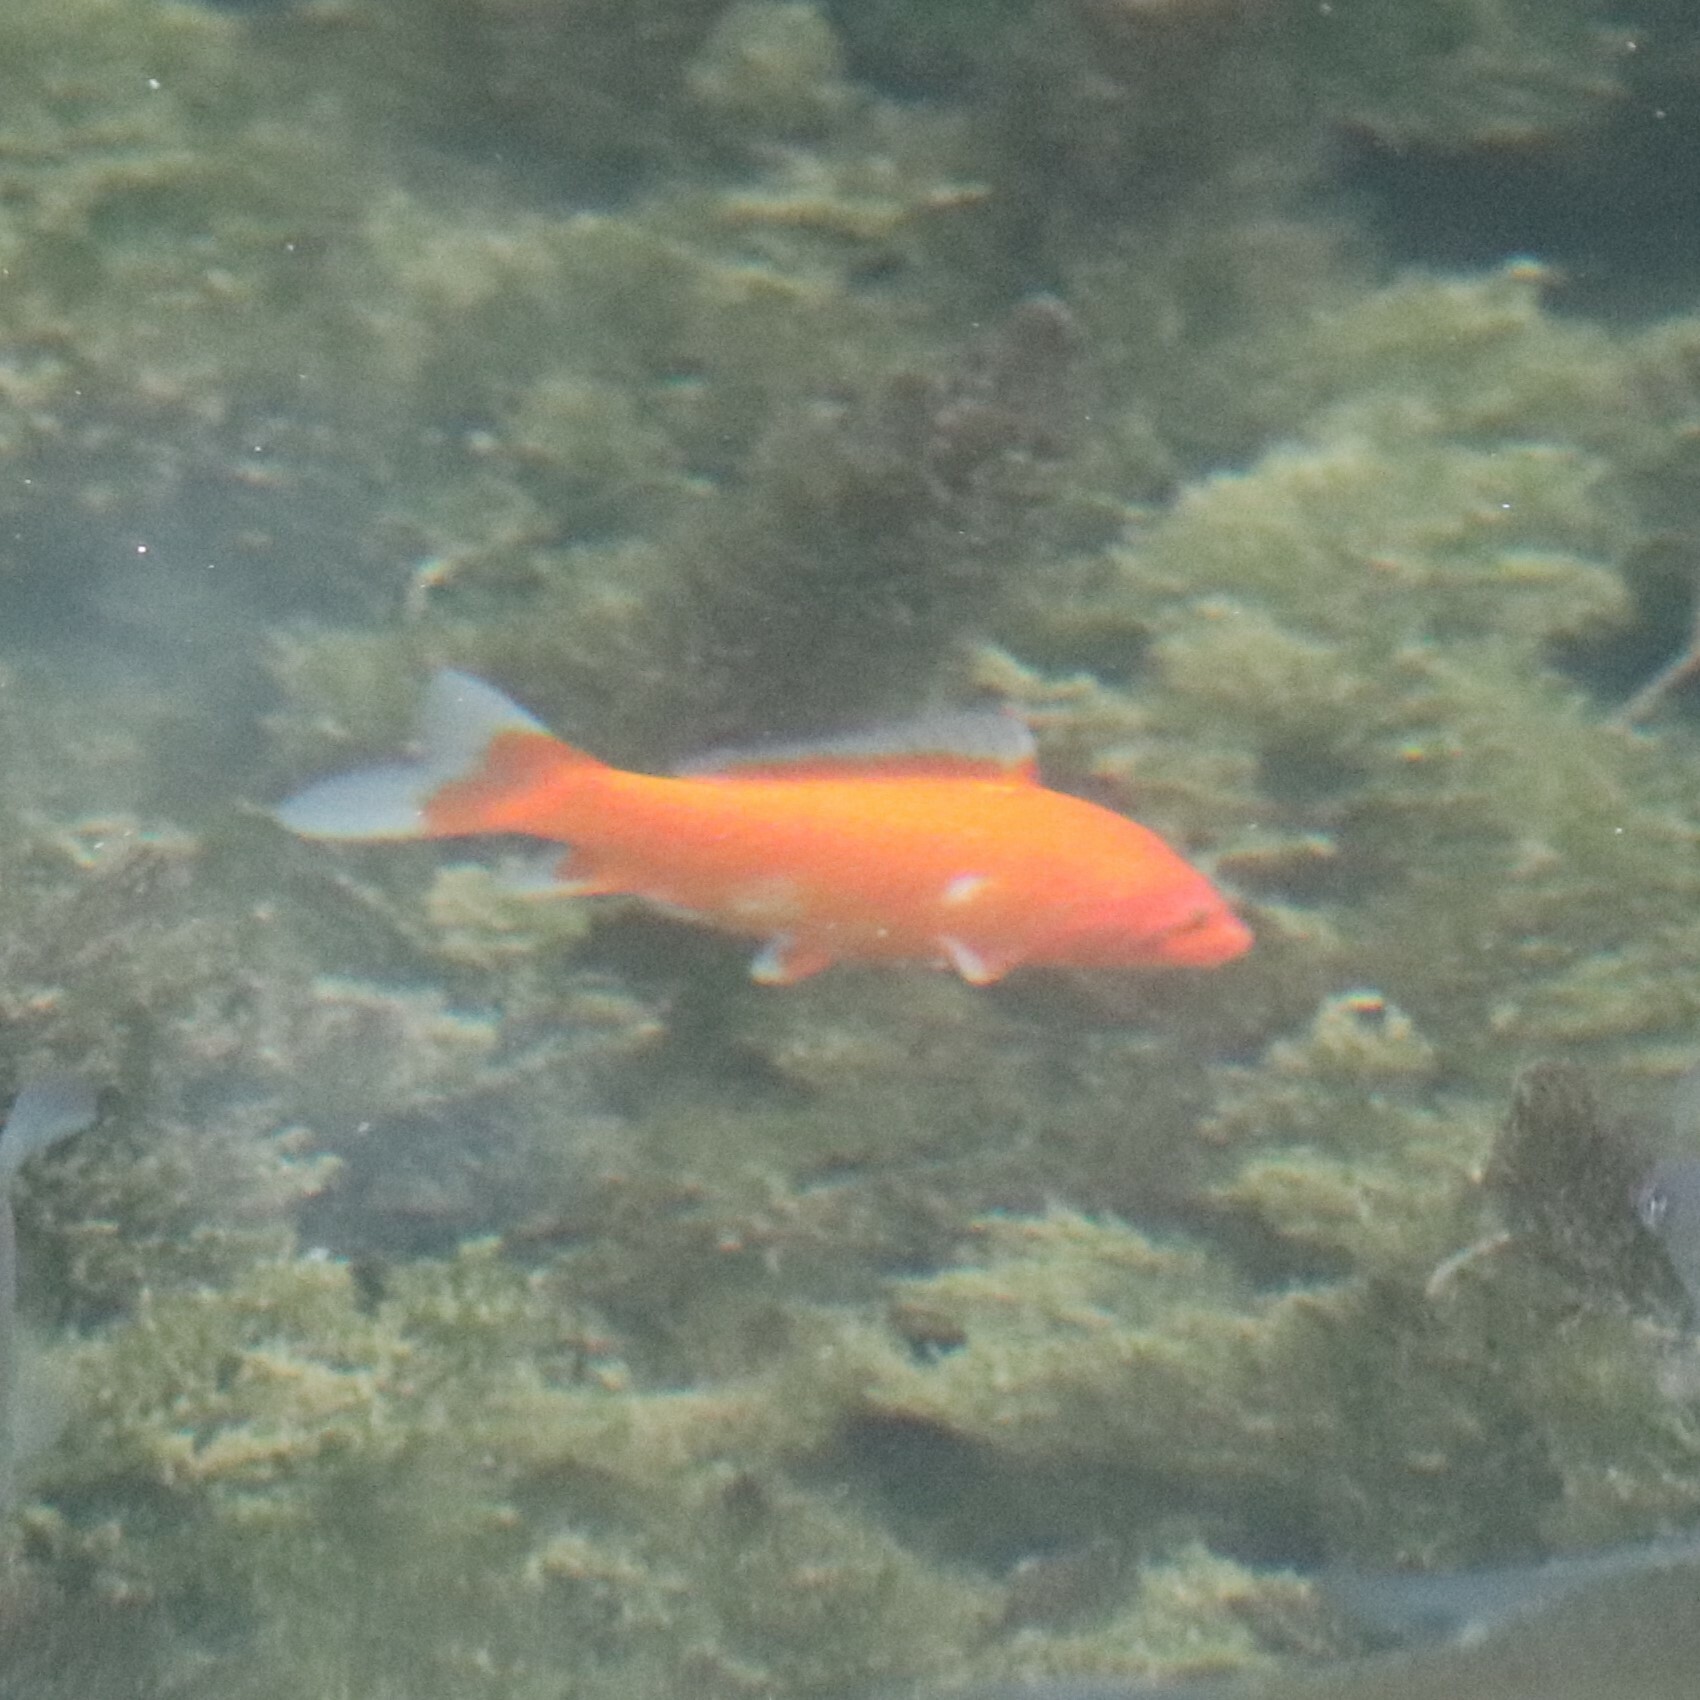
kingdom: Animalia
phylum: Chordata
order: Cypriniformes
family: Cyprinidae
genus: Carassius
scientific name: Carassius auratus
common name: Goldfish
